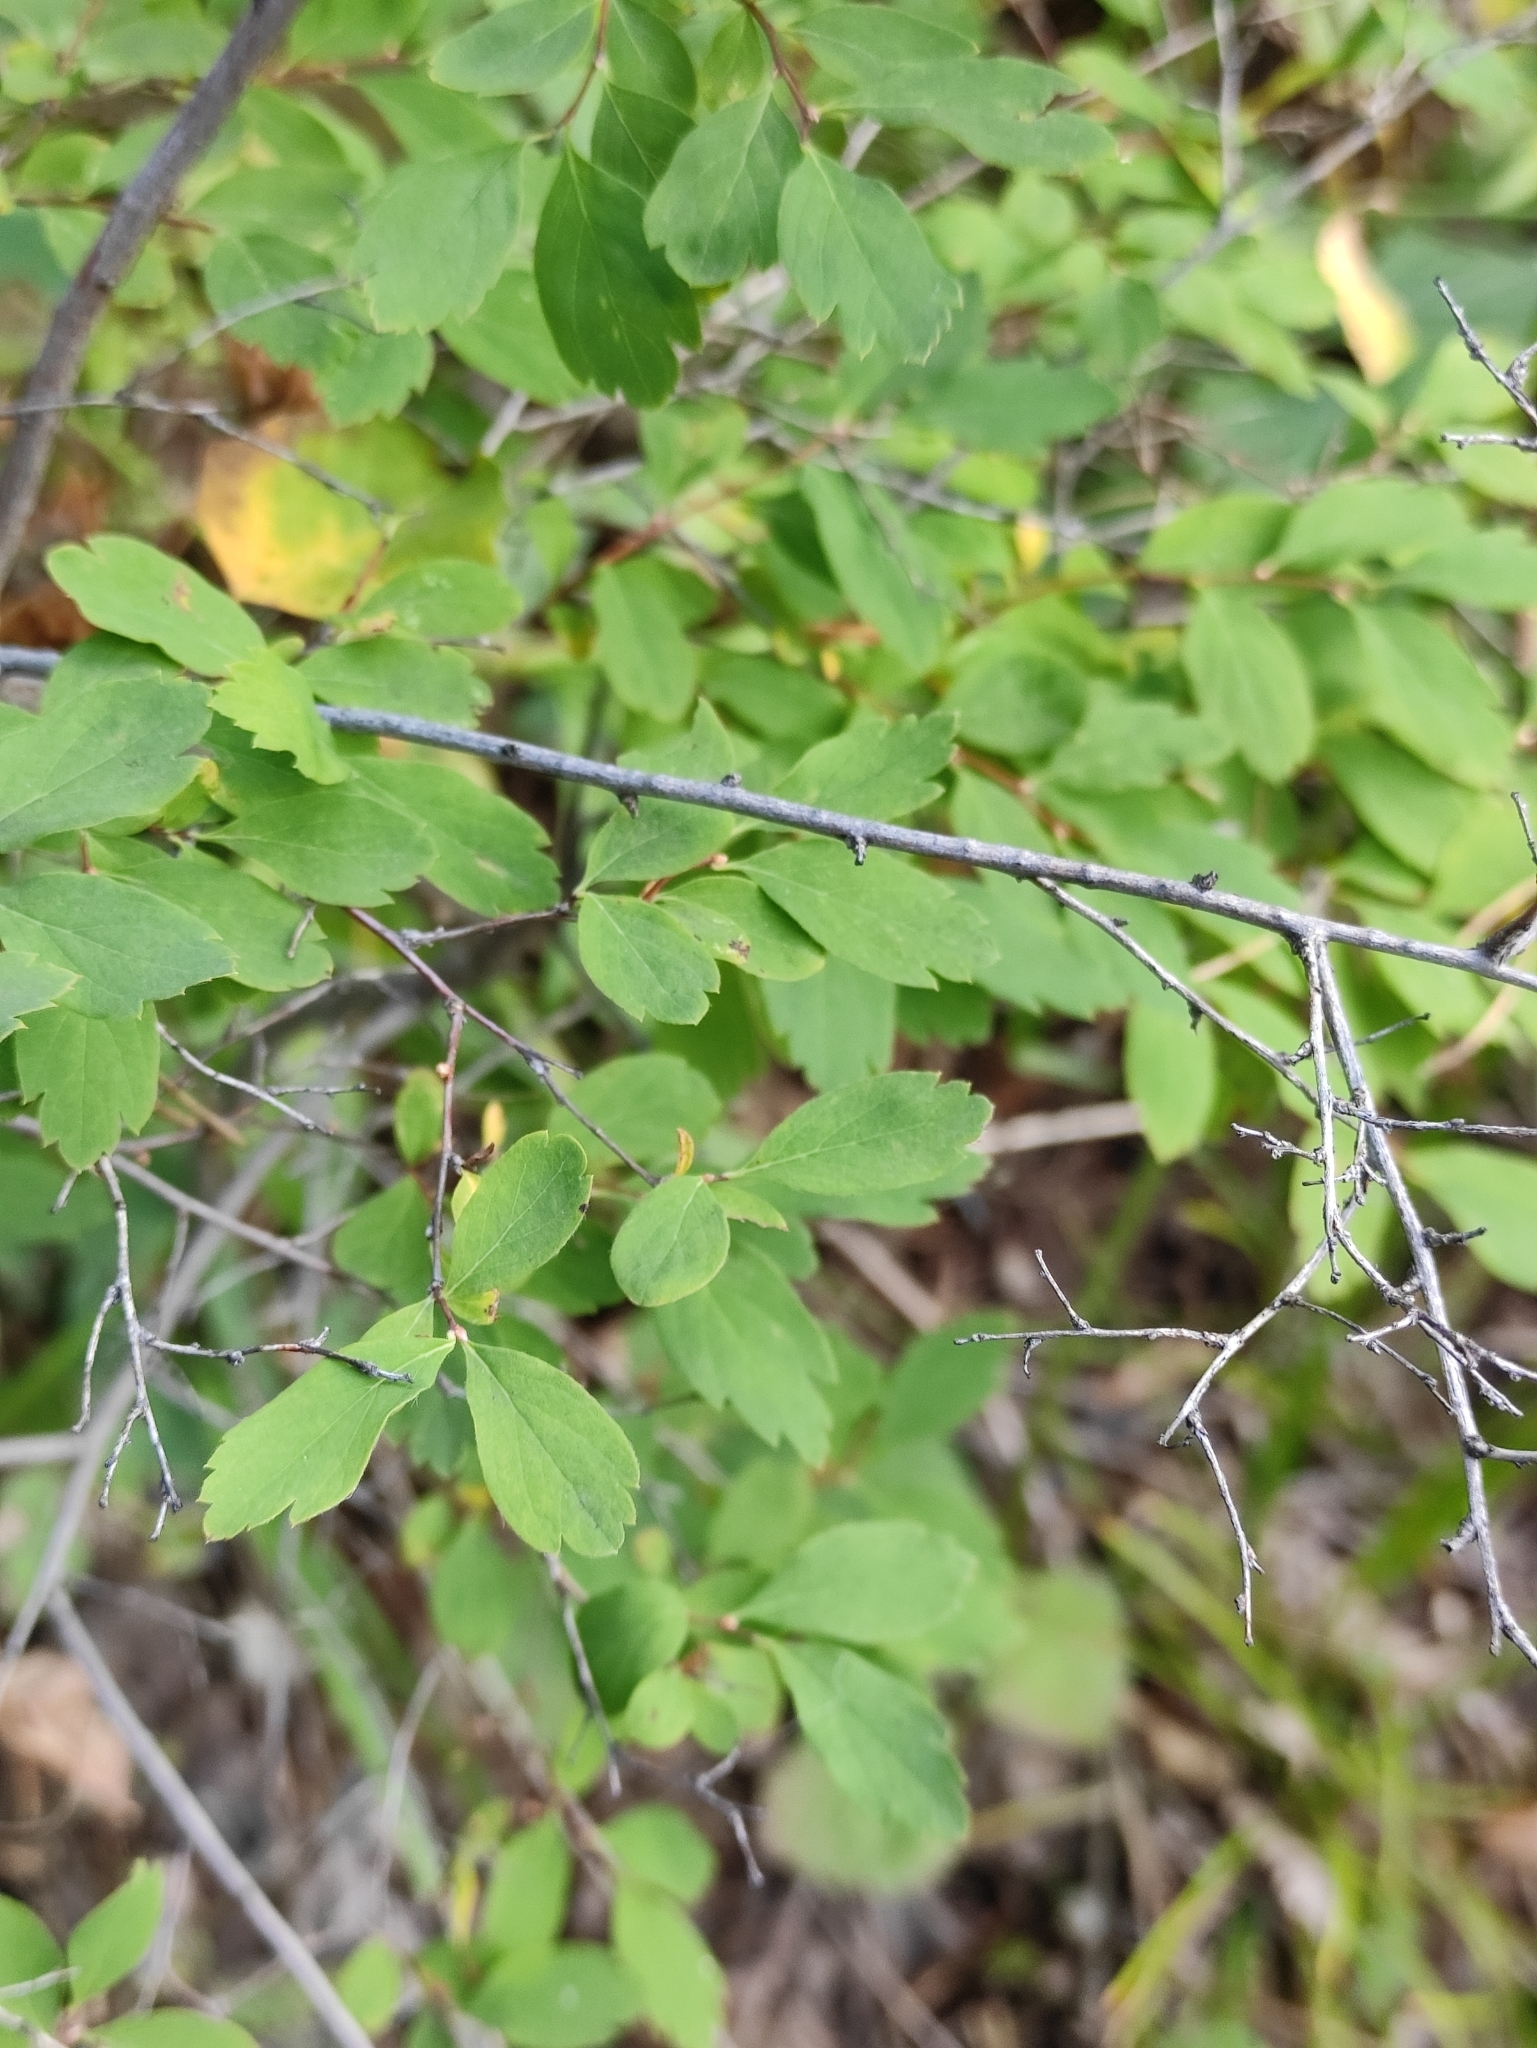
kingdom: Plantae
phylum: Tracheophyta
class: Magnoliopsida
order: Rosales
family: Rosaceae
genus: Spiraea
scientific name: Spiraea media
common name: Russian spiraea
